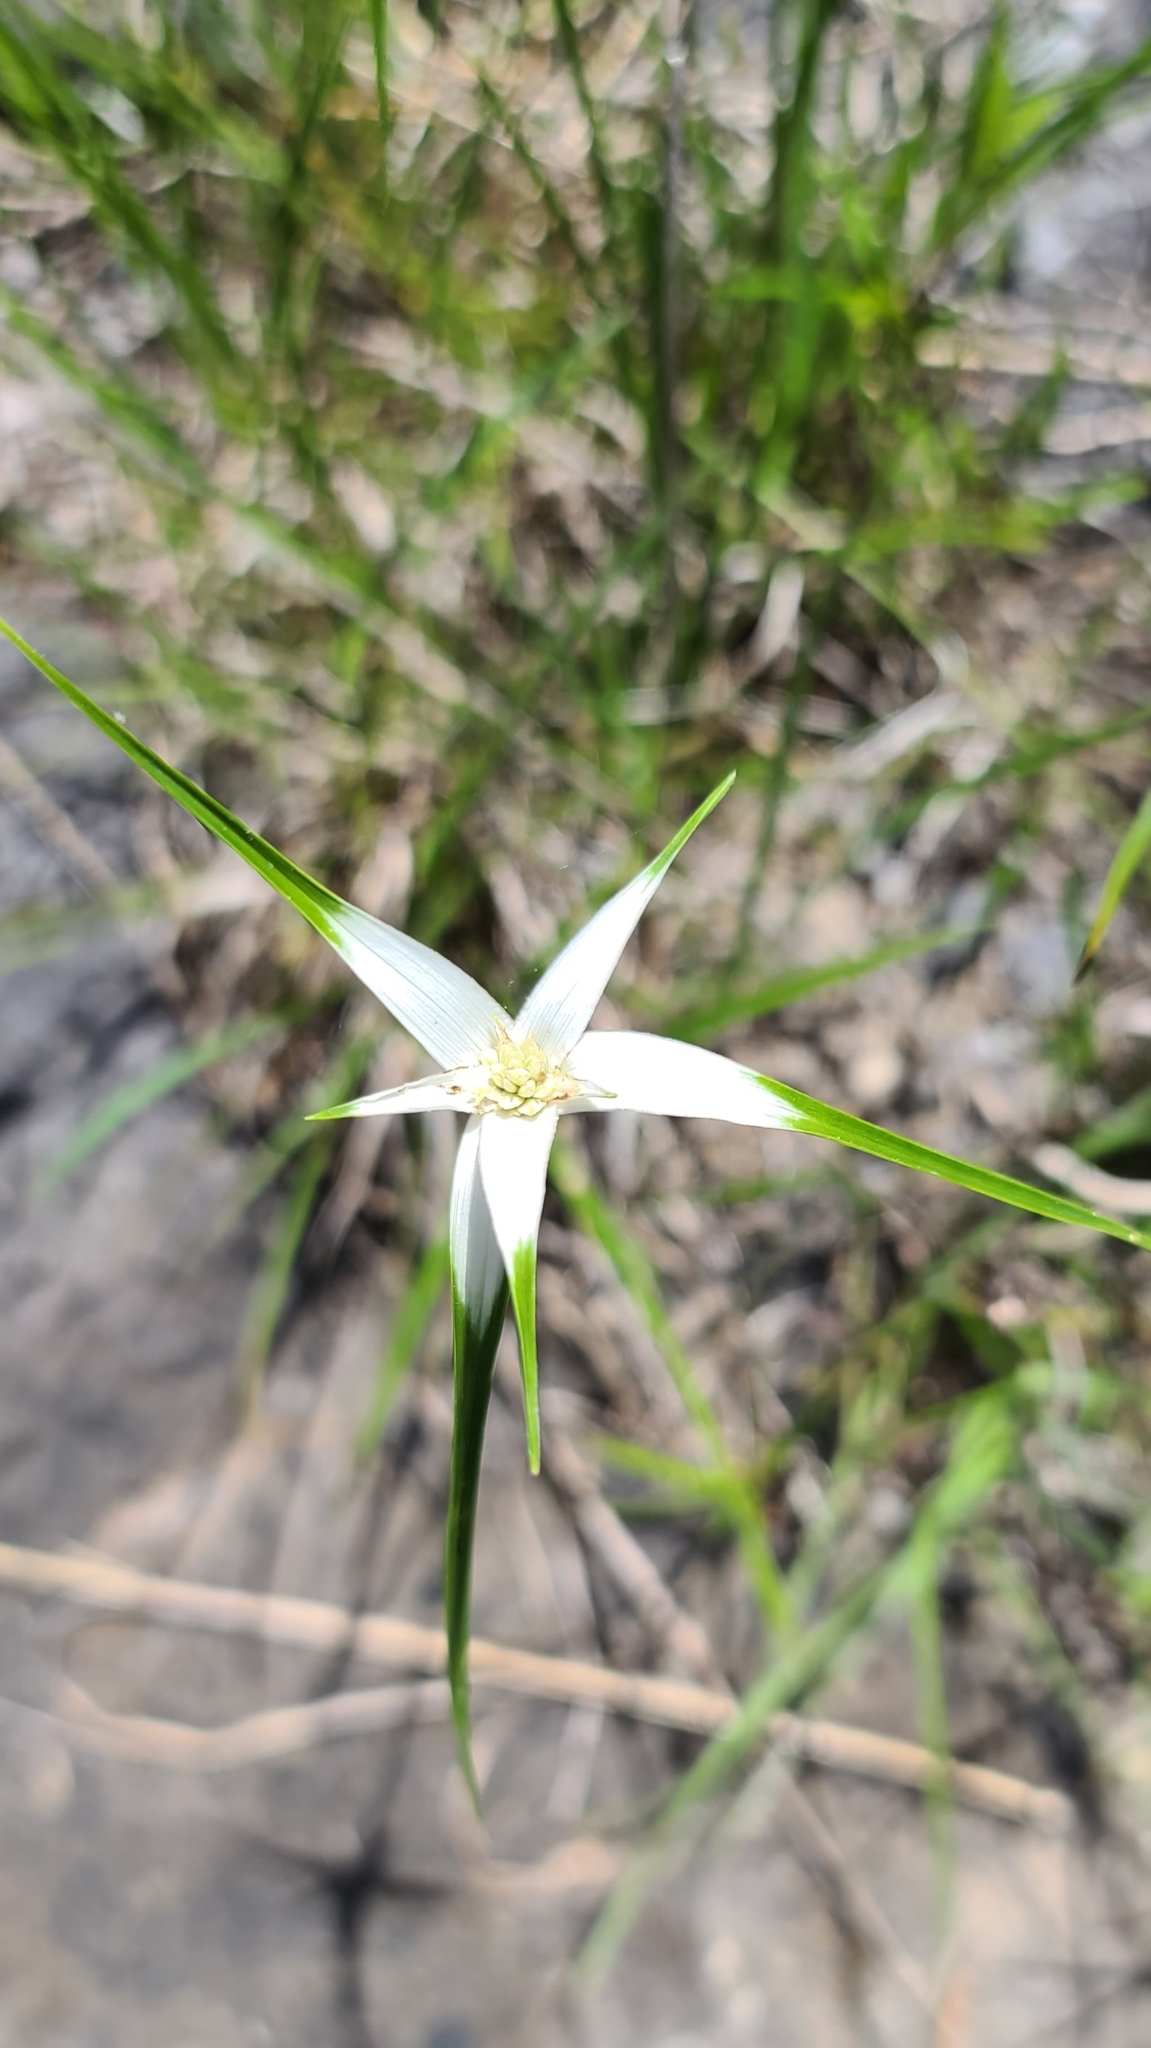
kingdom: Plantae
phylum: Tracheophyta
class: Liliopsida
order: Poales
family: Cyperaceae
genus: Rhynchospora
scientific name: Rhynchospora colorata
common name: Star sedge
